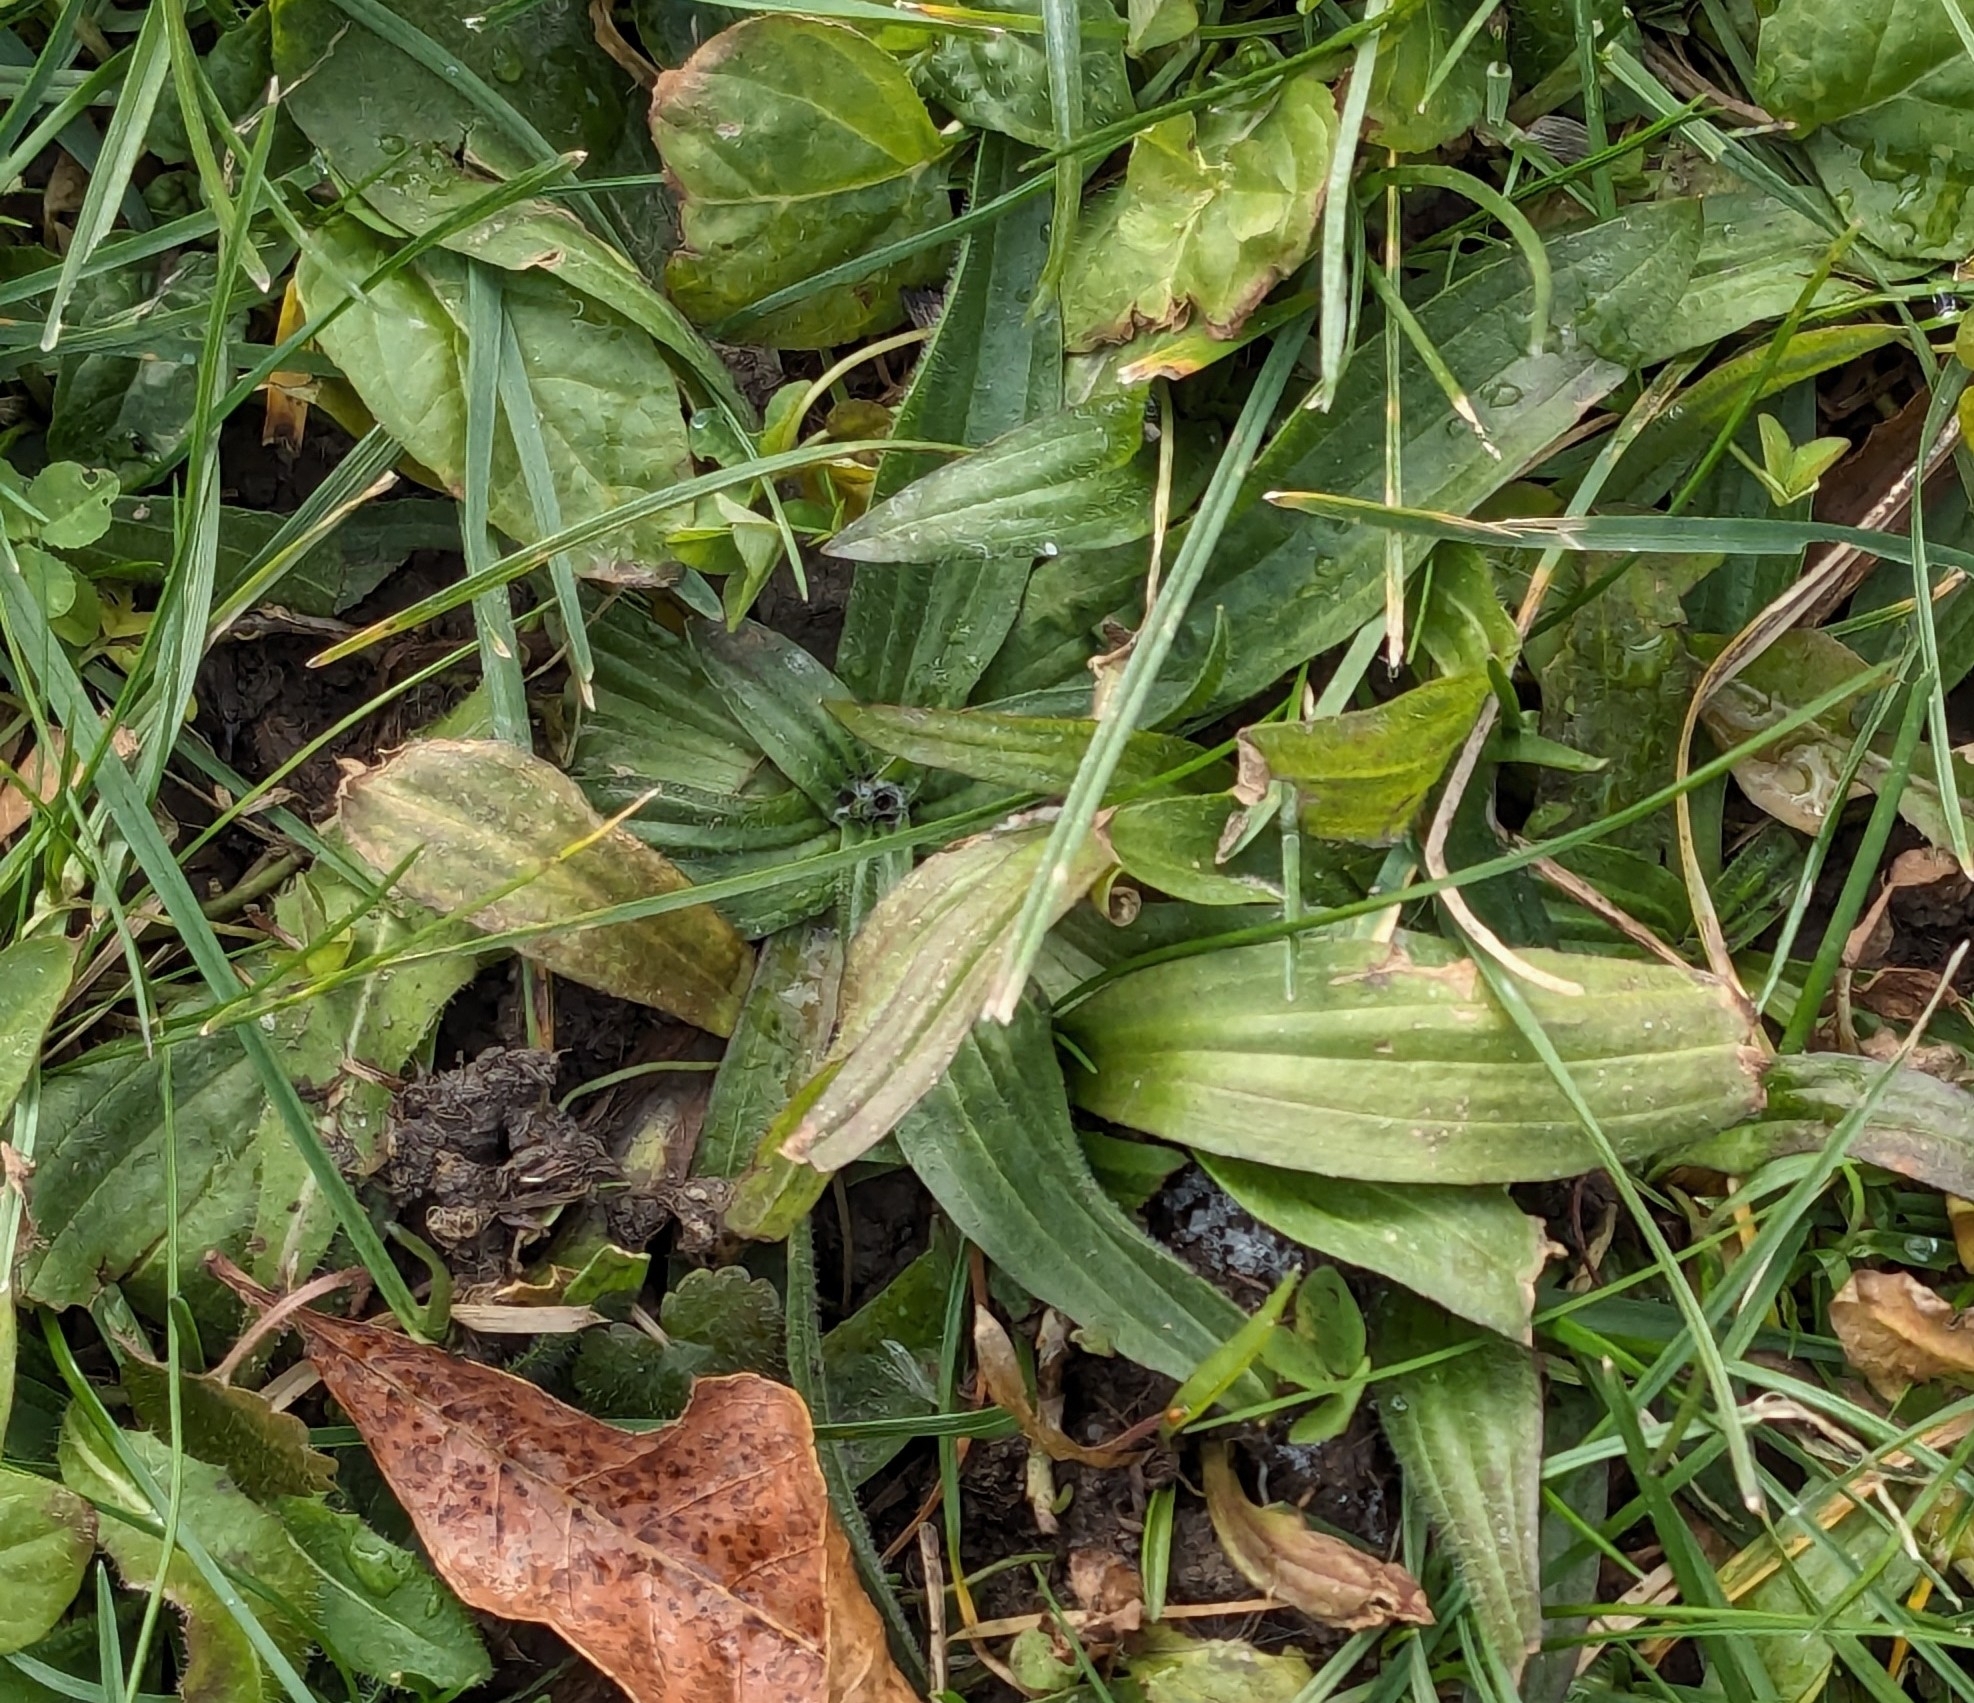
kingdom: Plantae
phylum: Tracheophyta
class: Magnoliopsida
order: Lamiales
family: Plantaginaceae
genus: Plantago
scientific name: Plantago lanceolata
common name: Ribwort plantain
